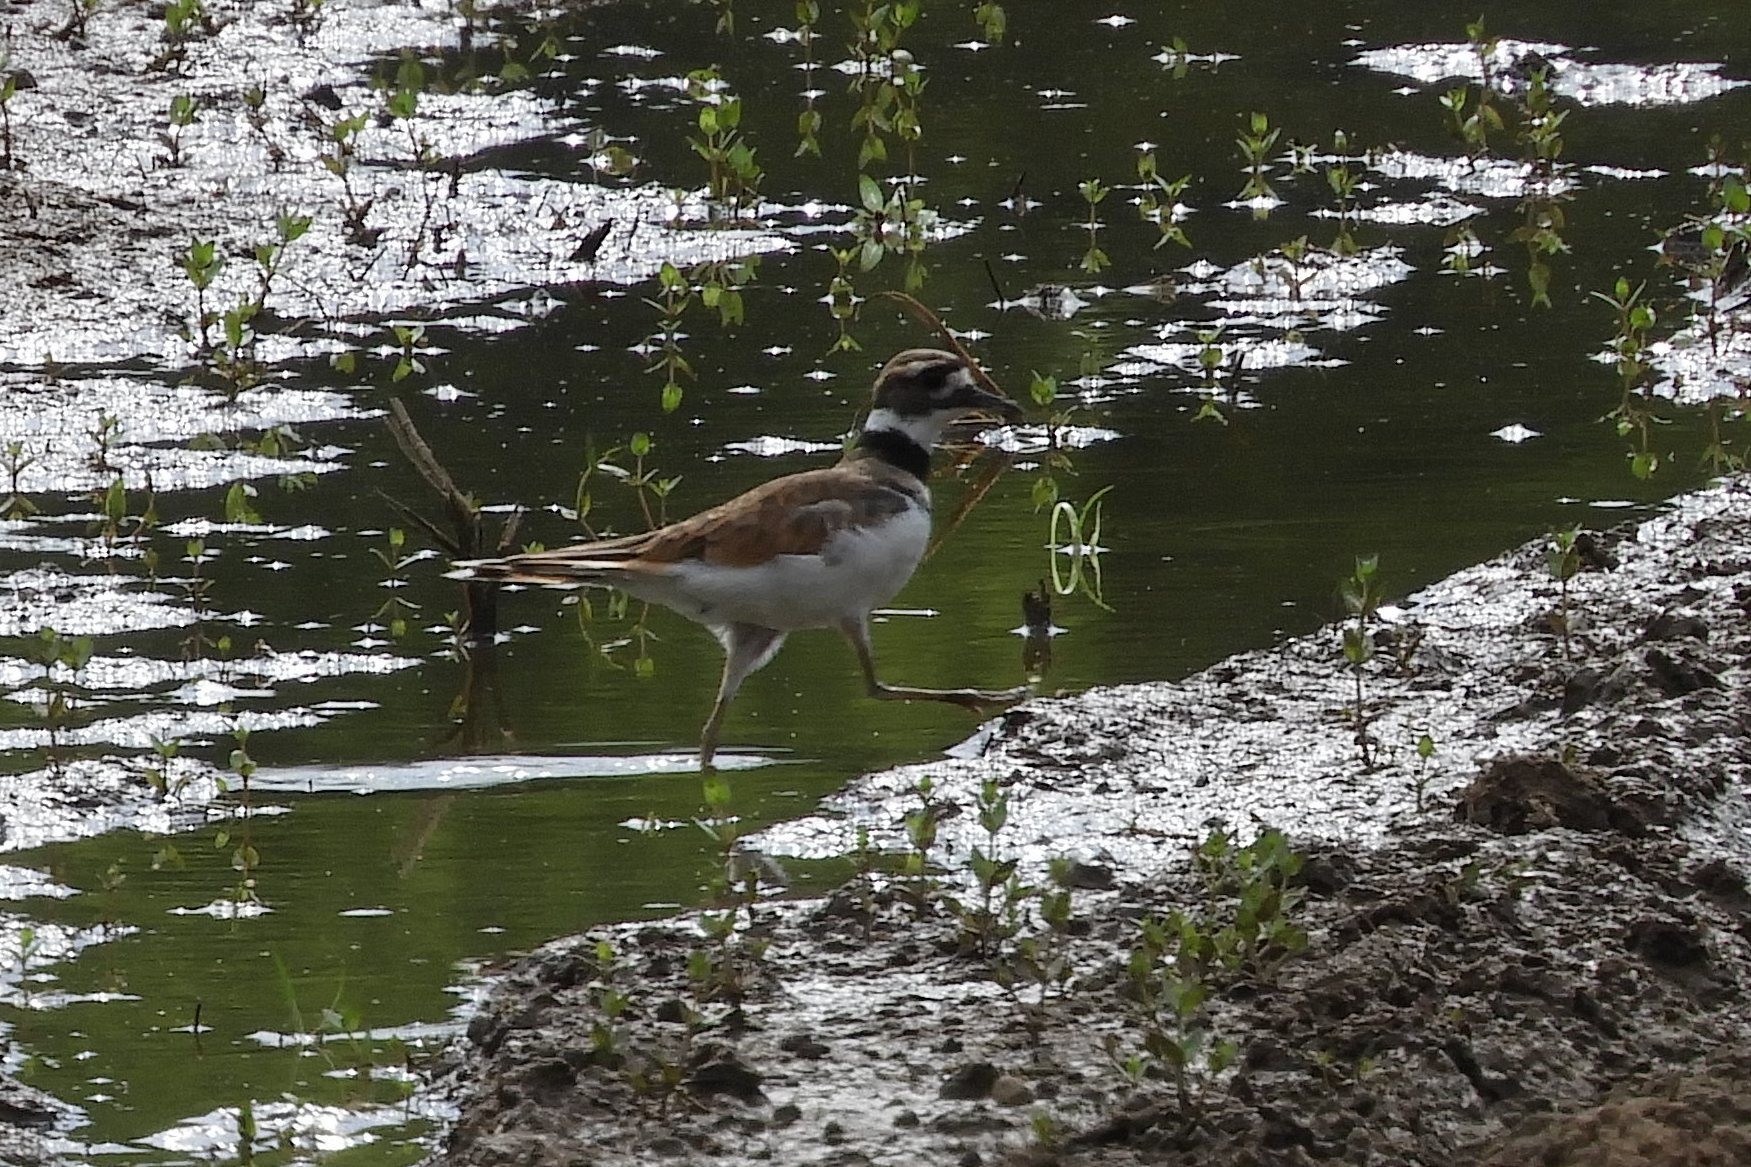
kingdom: Animalia
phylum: Chordata
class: Aves
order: Charadriiformes
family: Charadriidae
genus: Charadrius
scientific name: Charadrius vociferus
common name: Killdeer
